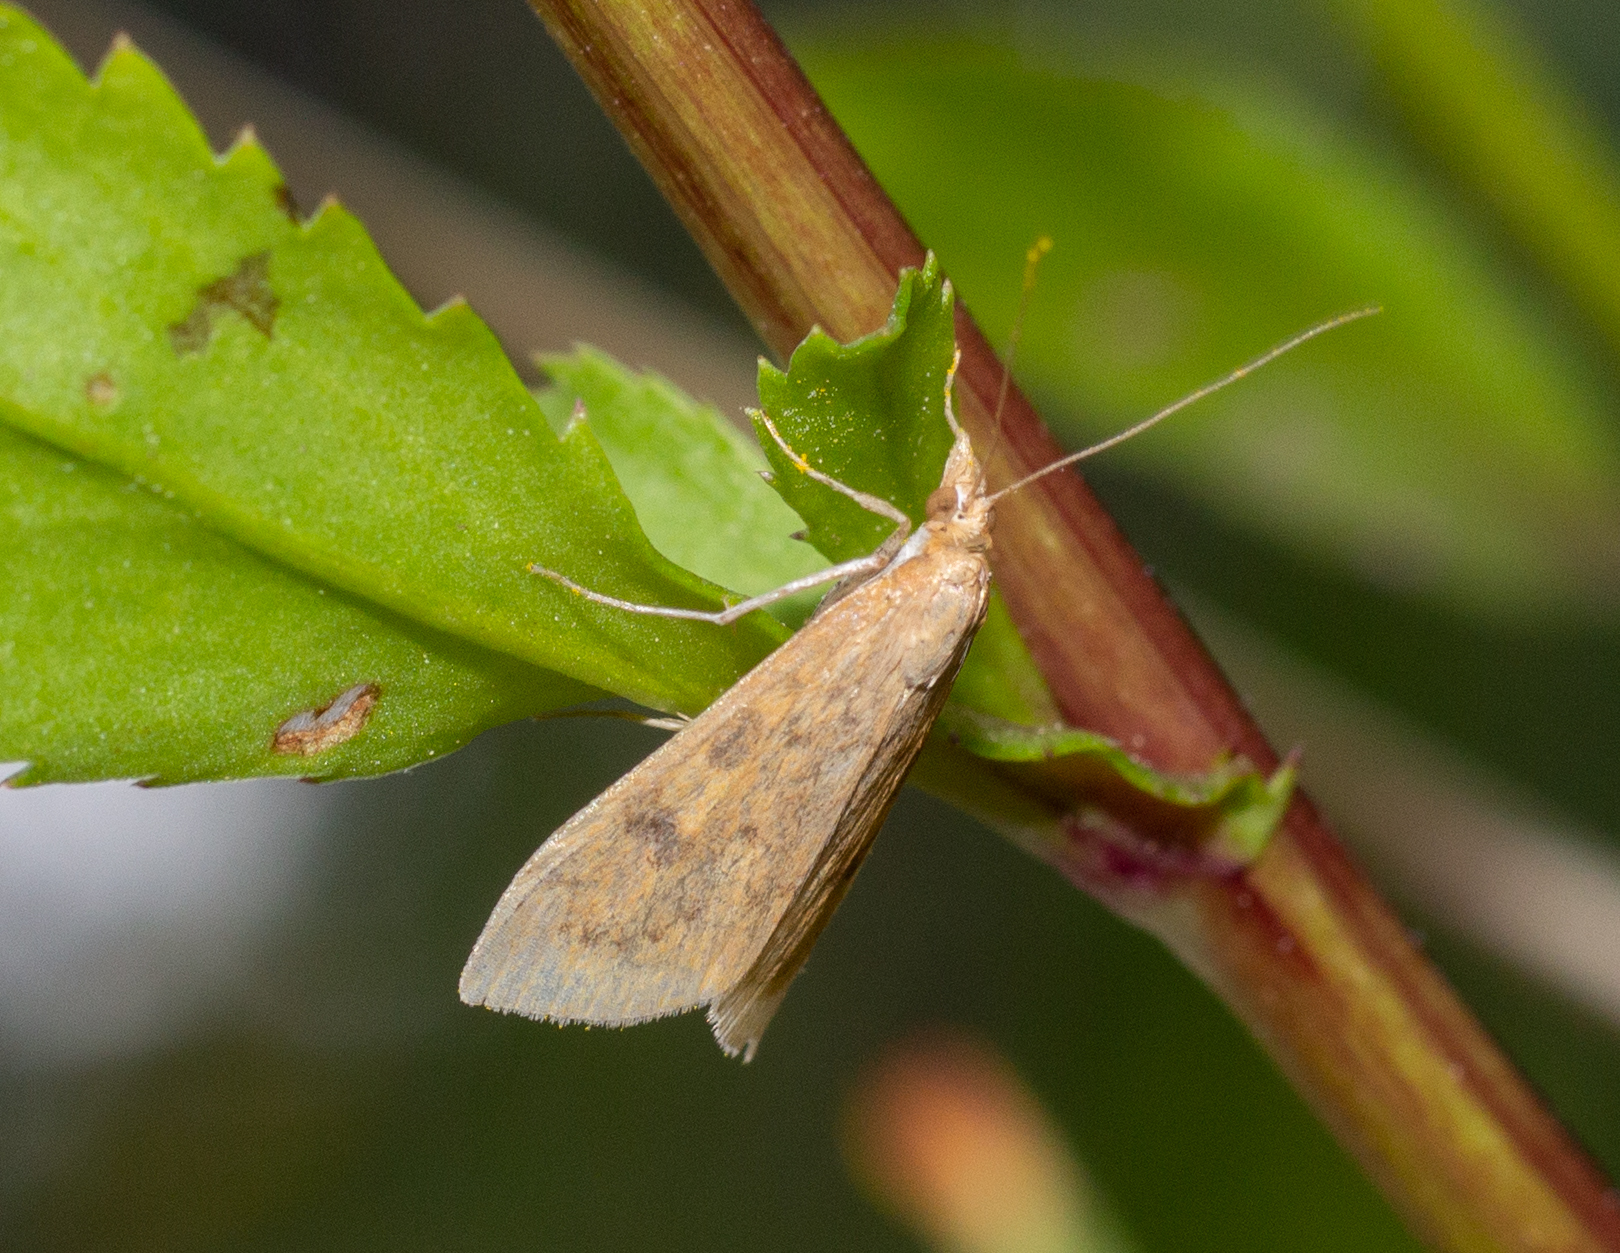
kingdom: Animalia
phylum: Arthropoda
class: Insecta
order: Lepidoptera
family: Crambidae
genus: Udea
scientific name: Udea ferrugalis
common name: Rusty dot
